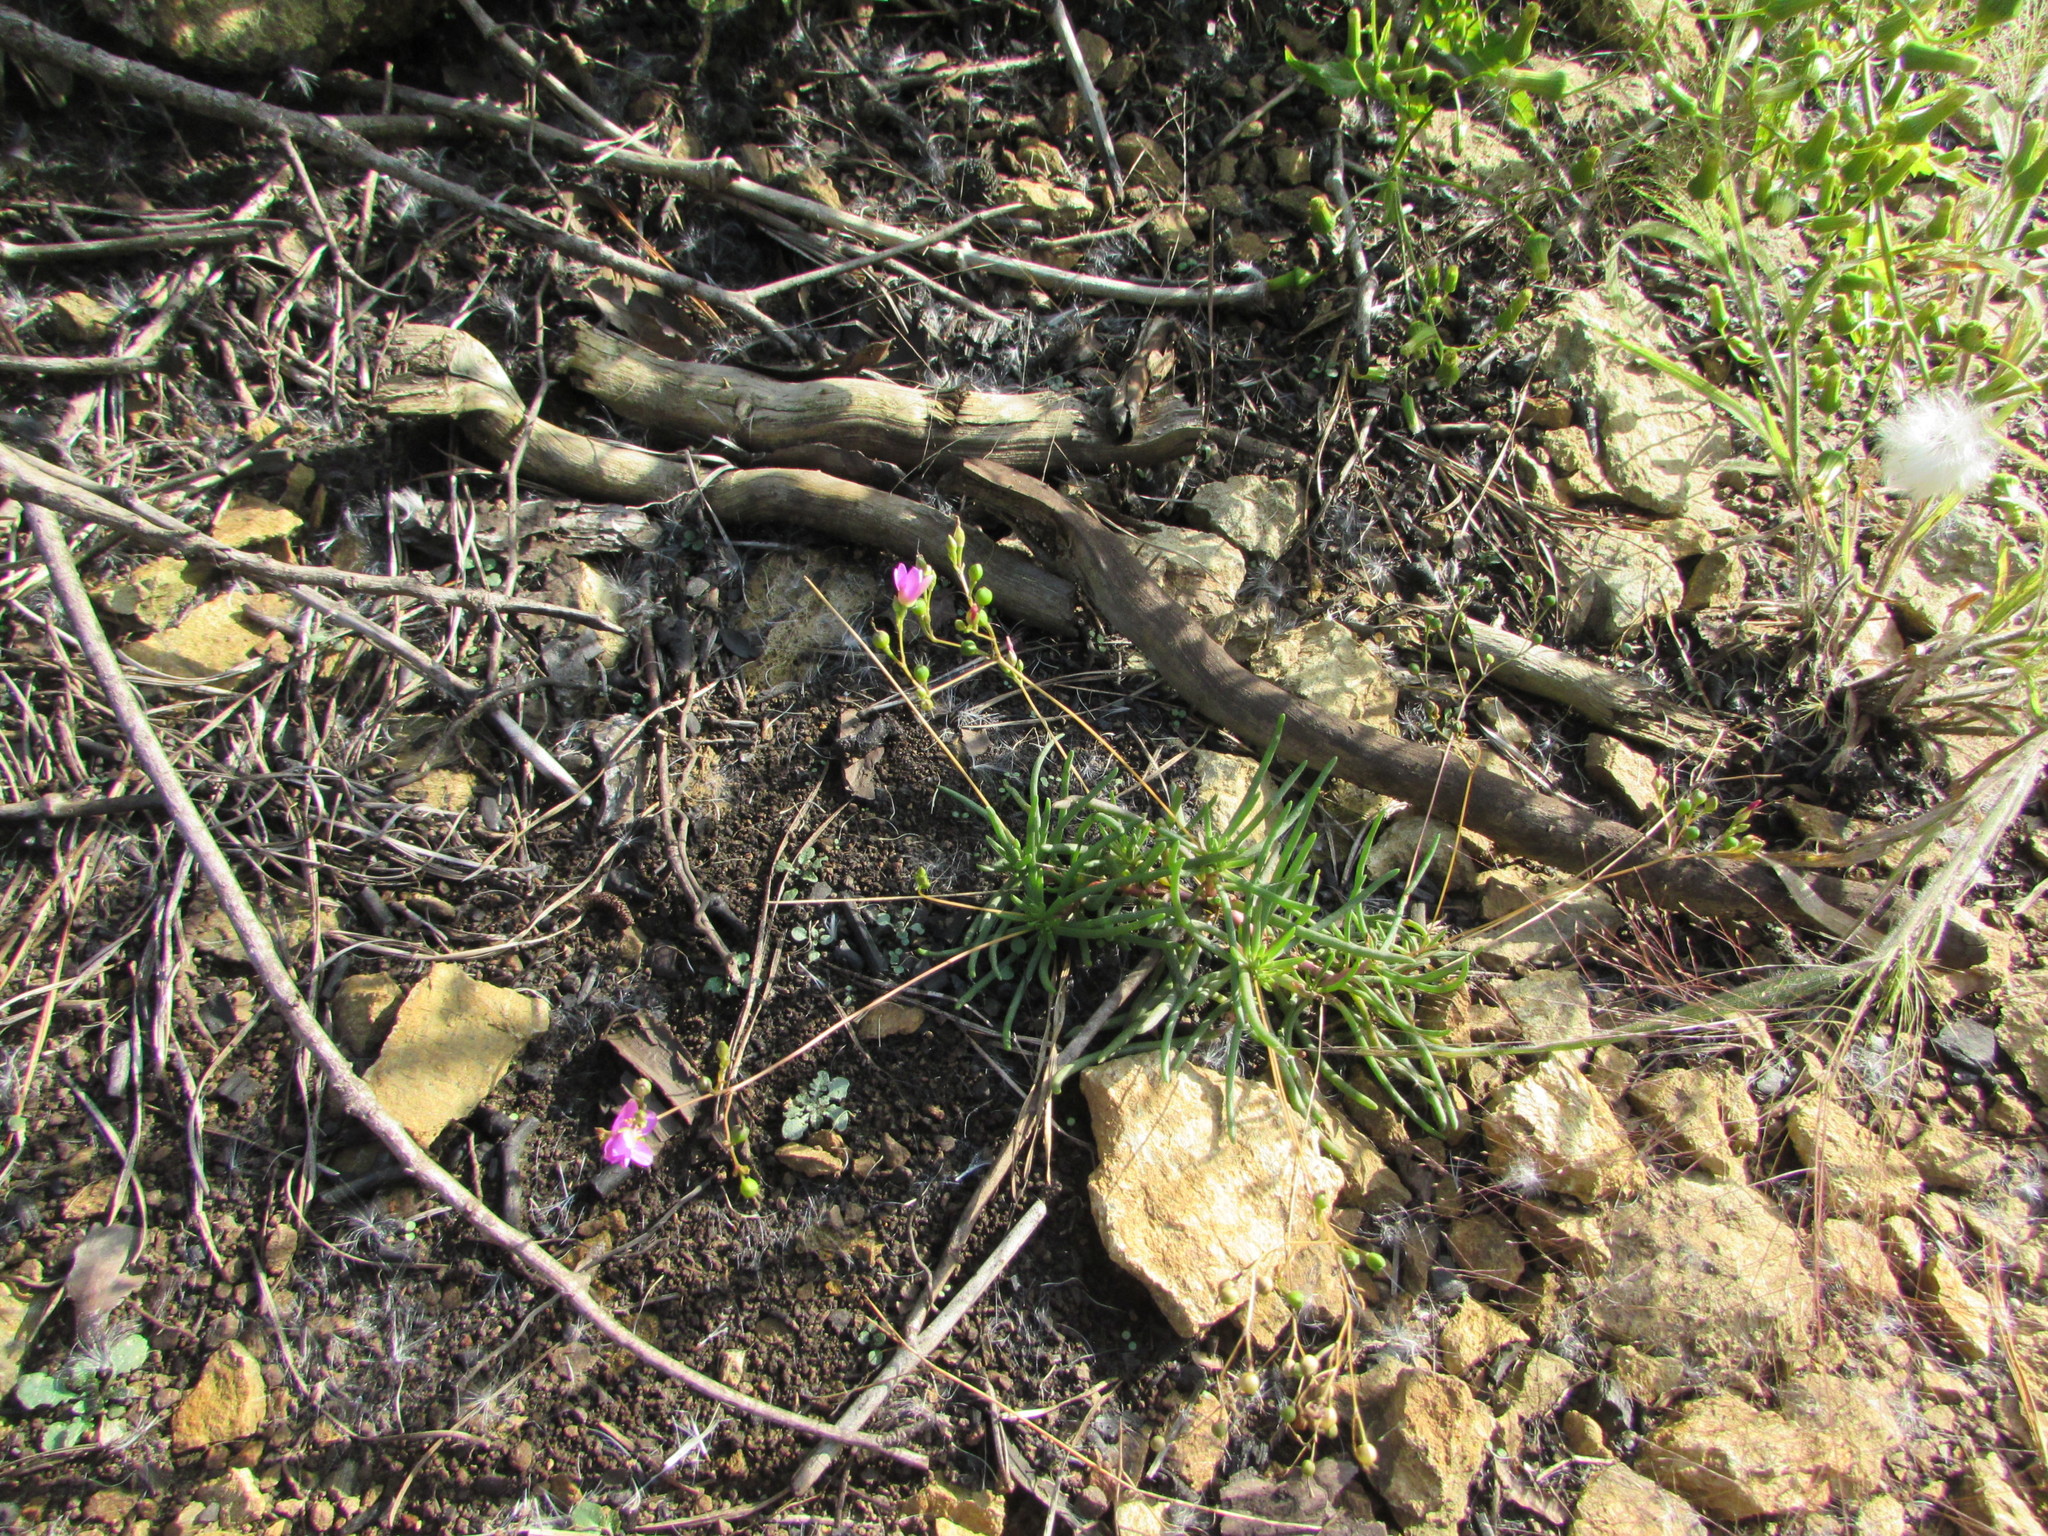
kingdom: Plantae
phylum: Tracheophyta
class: Magnoliopsida
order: Caryophyllales
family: Montiaceae
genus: Phemeranthus
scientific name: Phemeranthus teretifolius
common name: Quill fameflower
